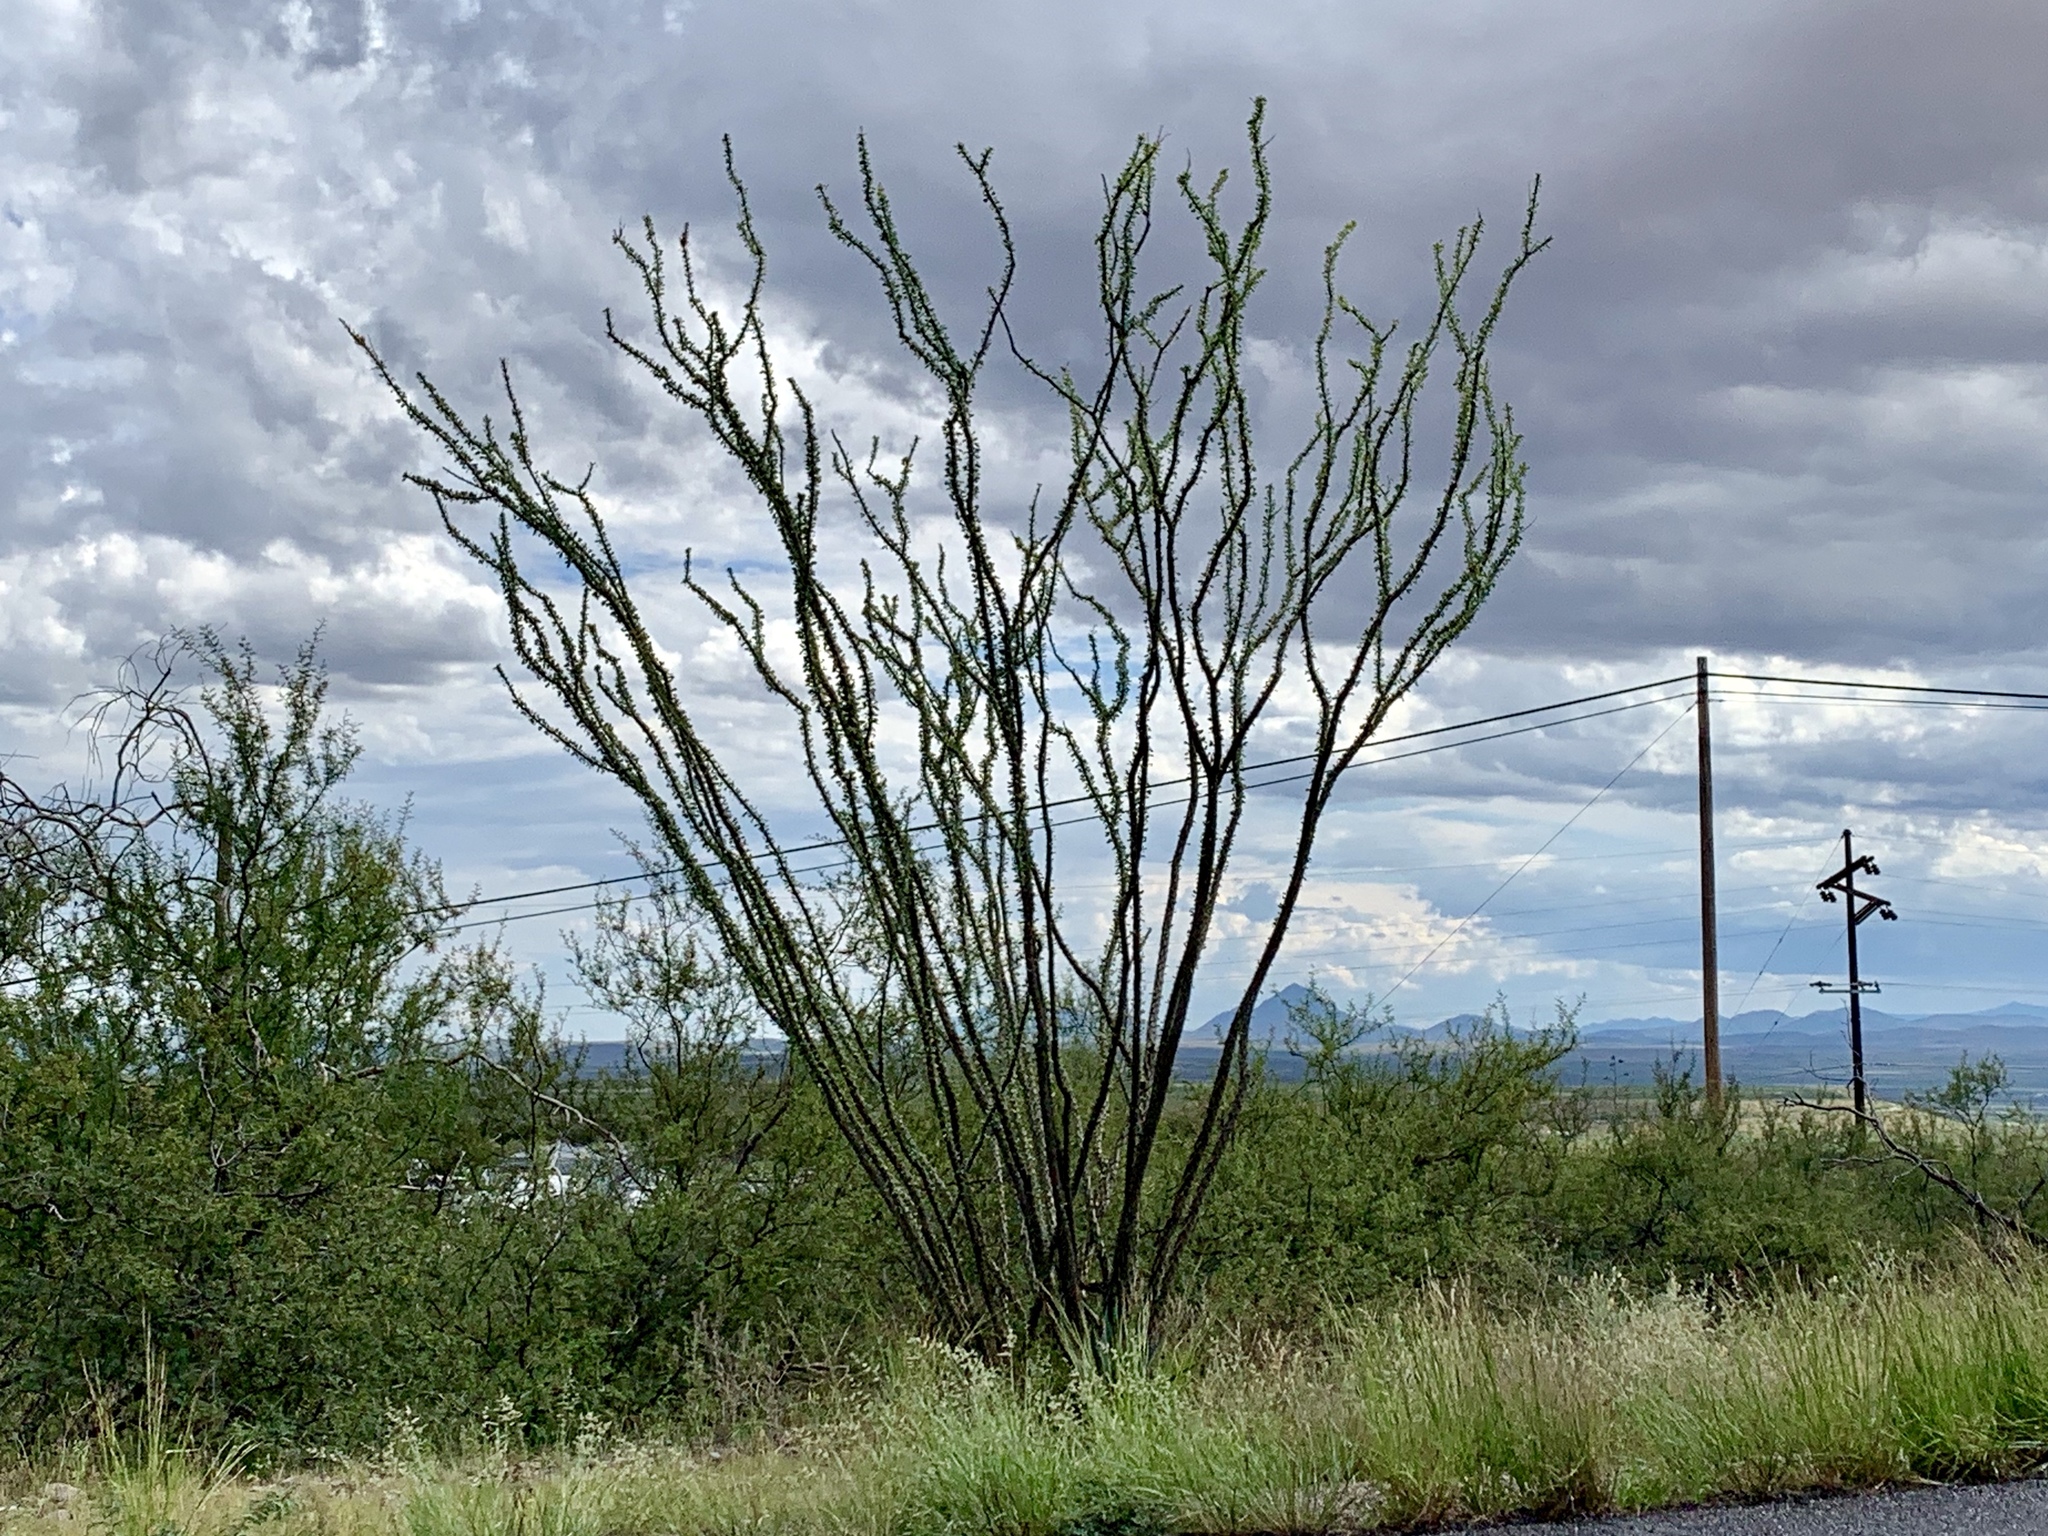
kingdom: Plantae
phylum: Tracheophyta
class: Magnoliopsida
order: Ericales
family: Fouquieriaceae
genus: Fouquieria
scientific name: Fouquieria splendens
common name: Vine-cactus
